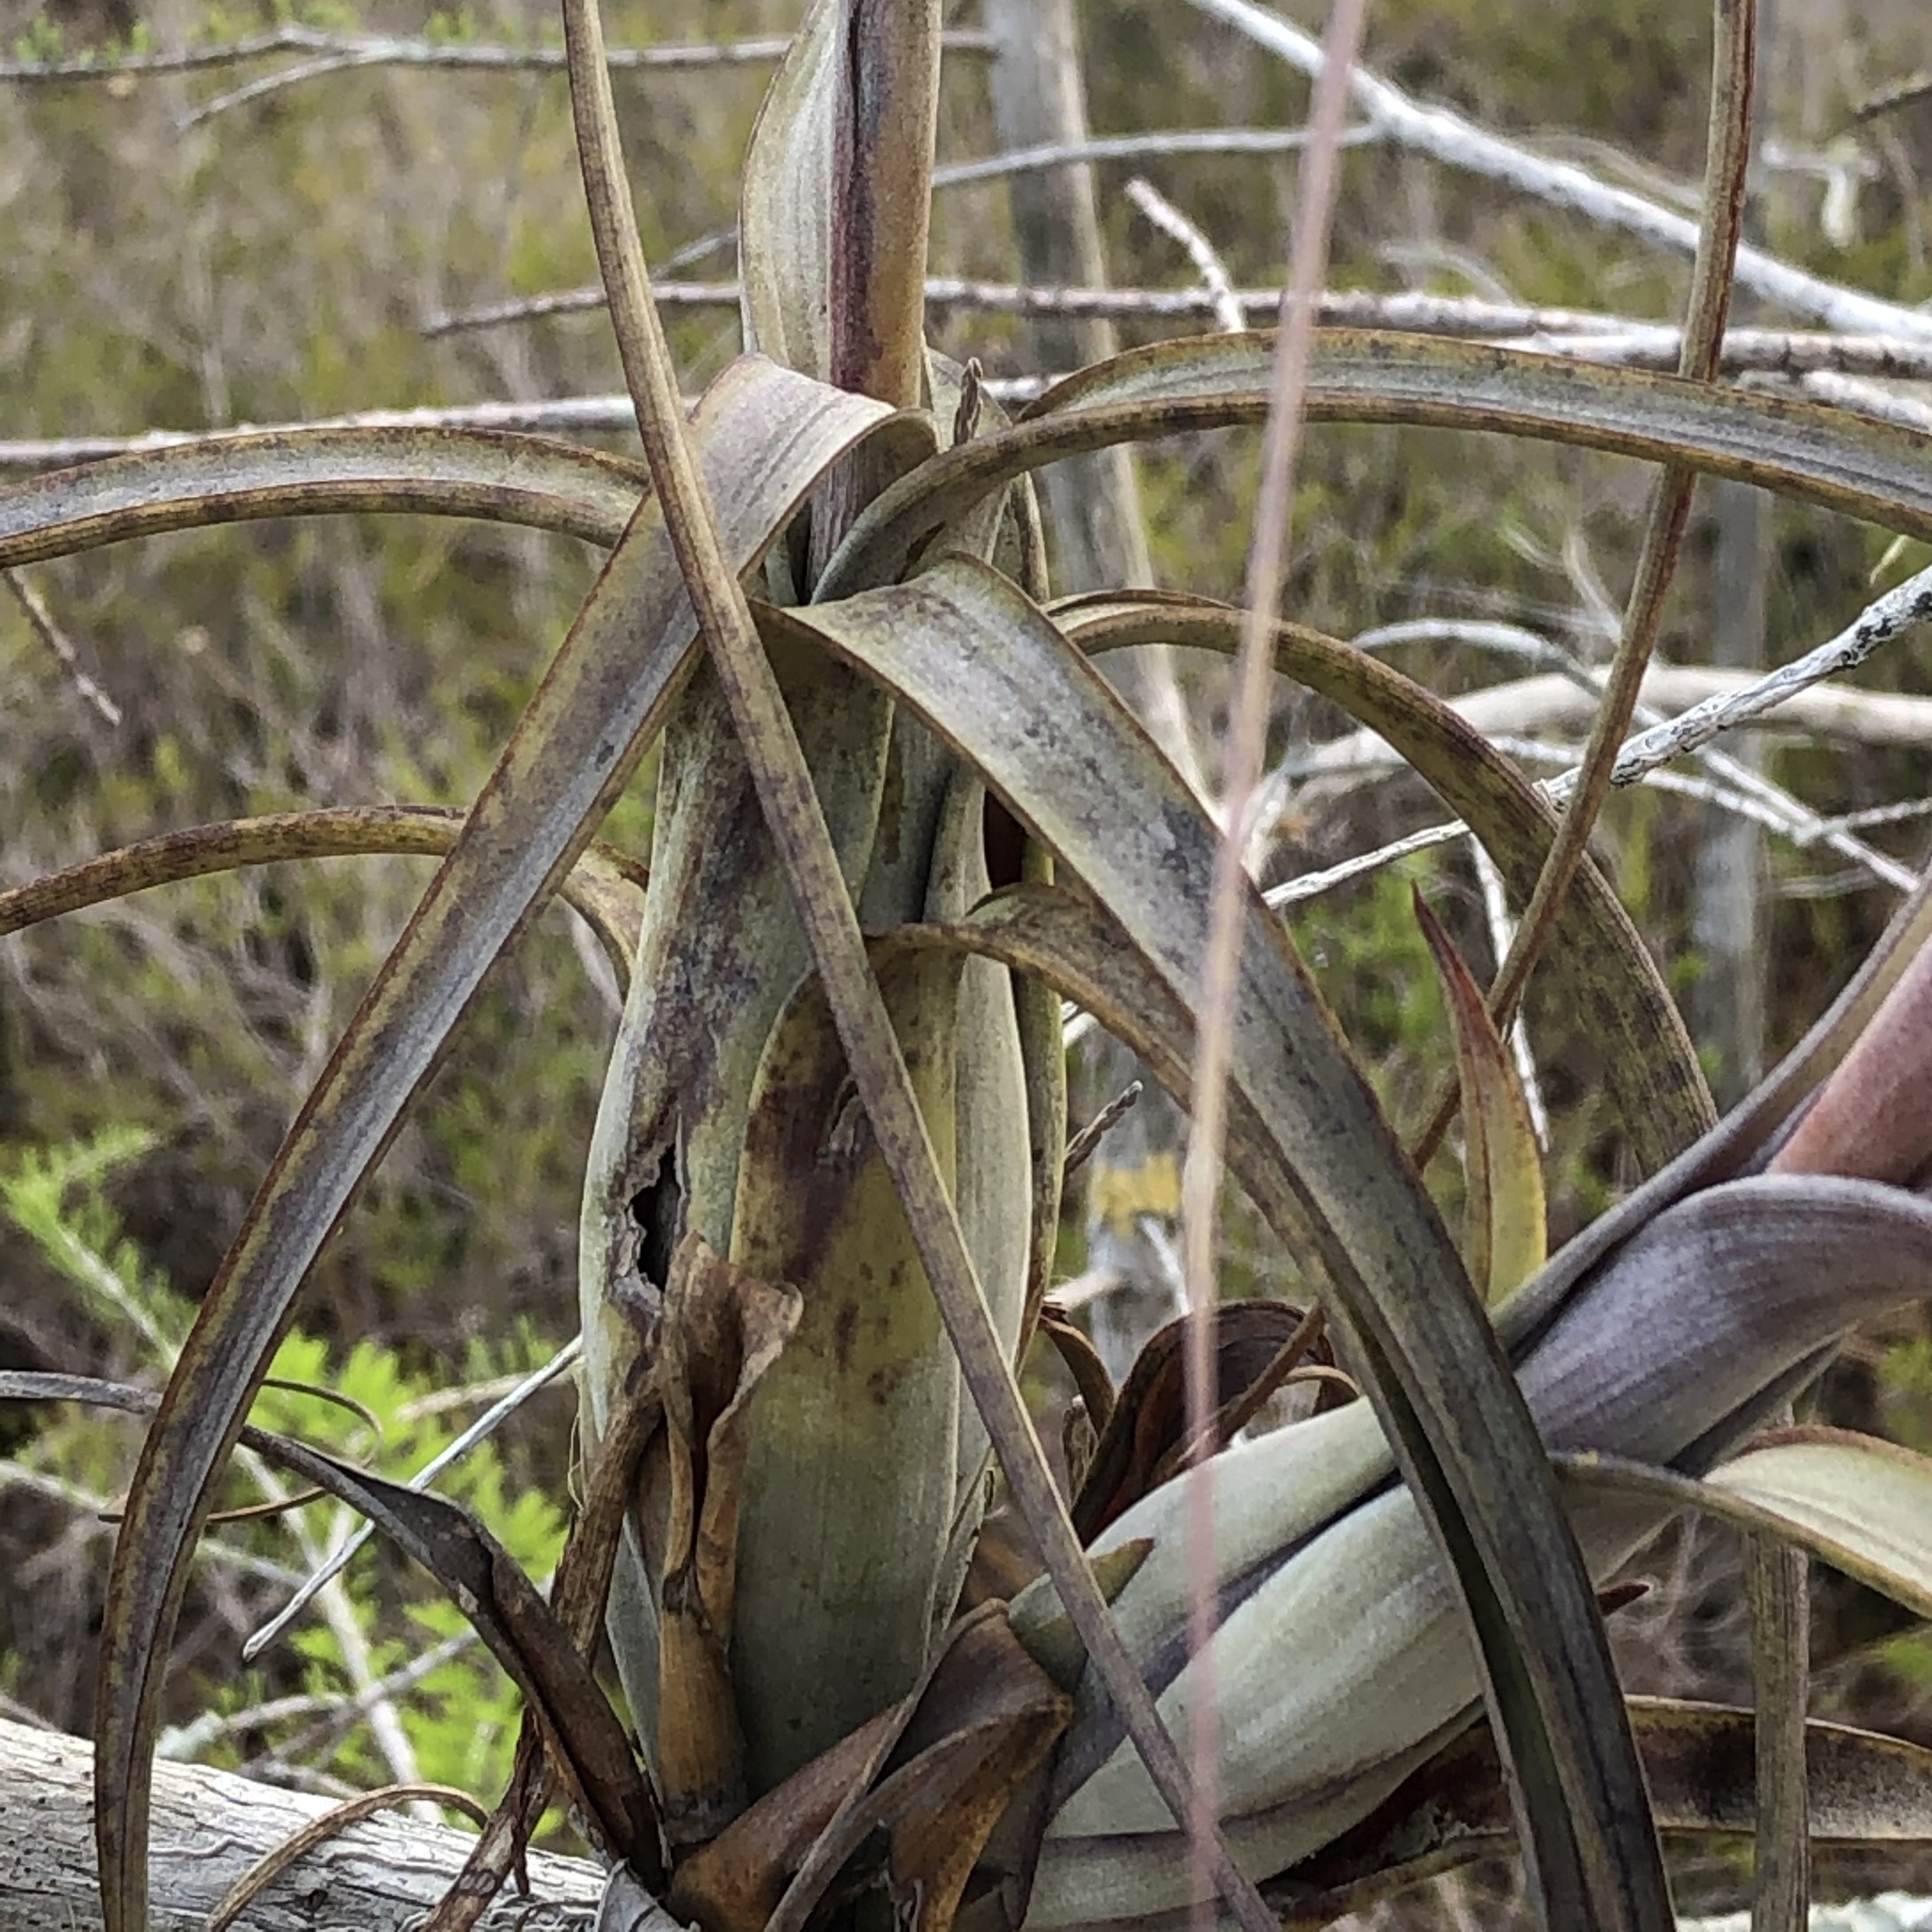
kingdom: Plantae
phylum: Tracheophyta
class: Liliopsida
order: Poales
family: Bromeliaceae
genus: Tillandsia
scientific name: Tillandsia balbisiana
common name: Northern needleleaf
